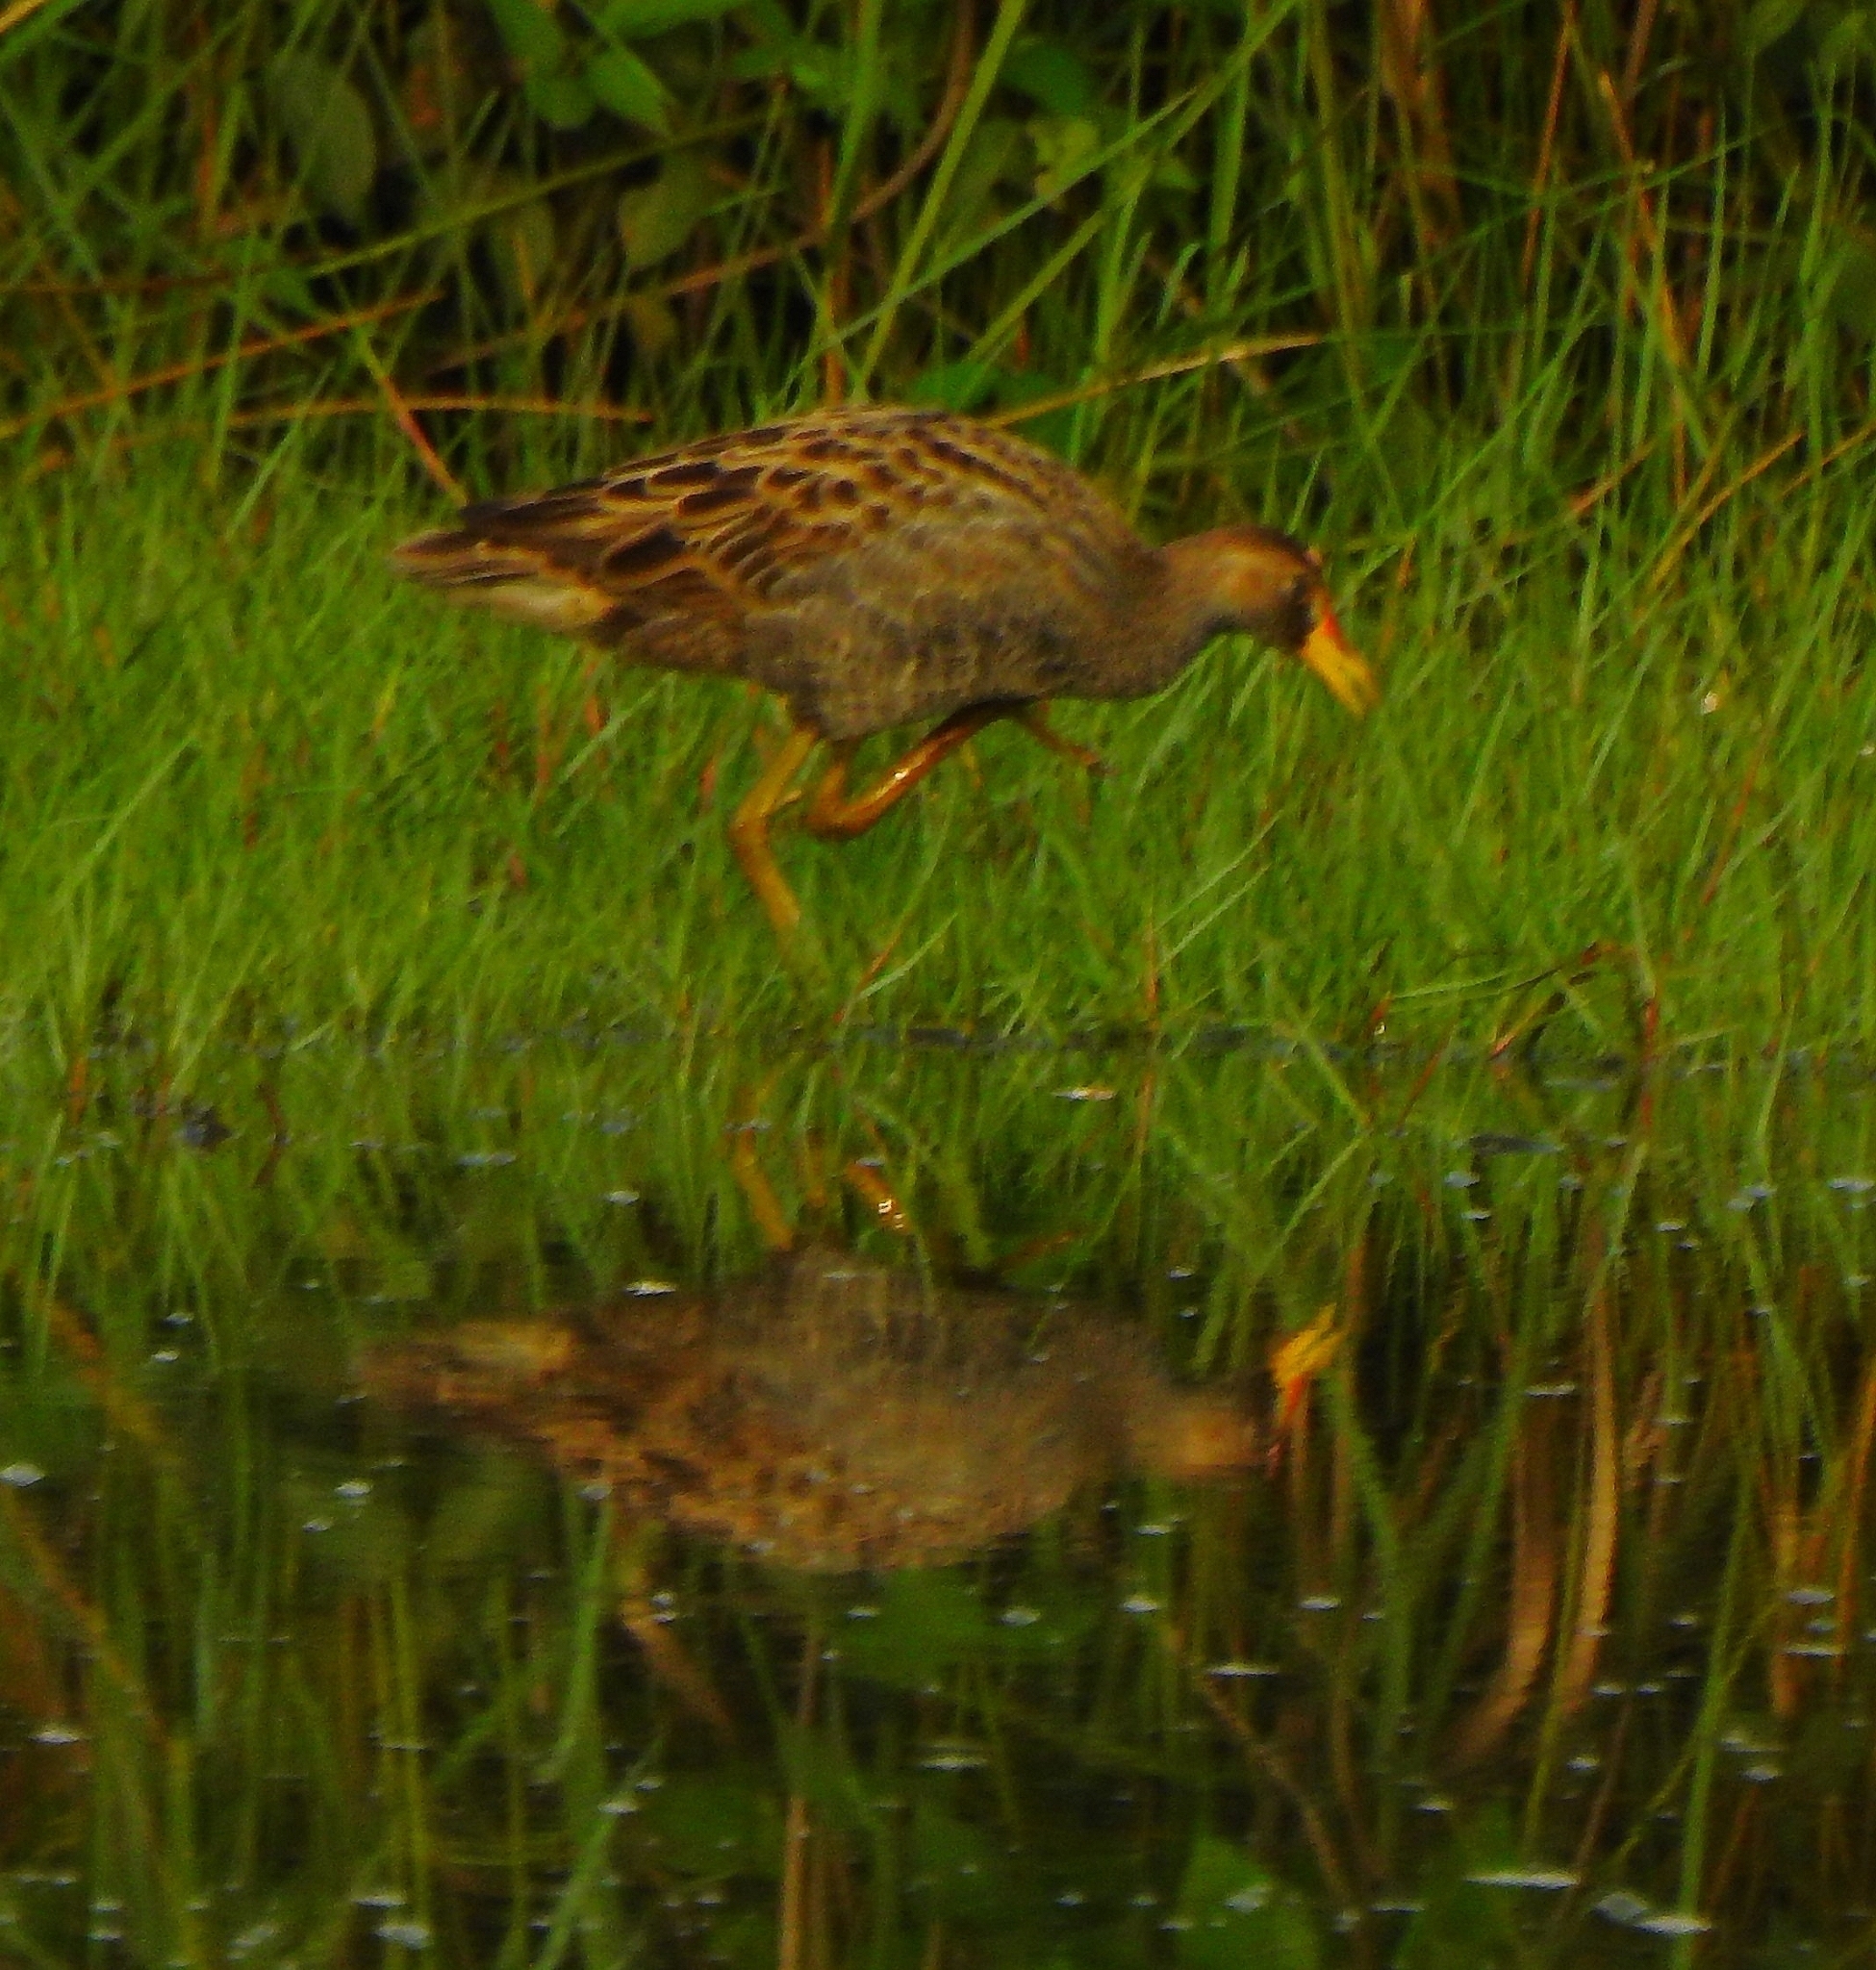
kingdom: Animalia
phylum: Chordata
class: Aves
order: Gruiformes
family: Rallidae
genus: Gallicrex
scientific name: Gallicrex cinerea
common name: Watercock
